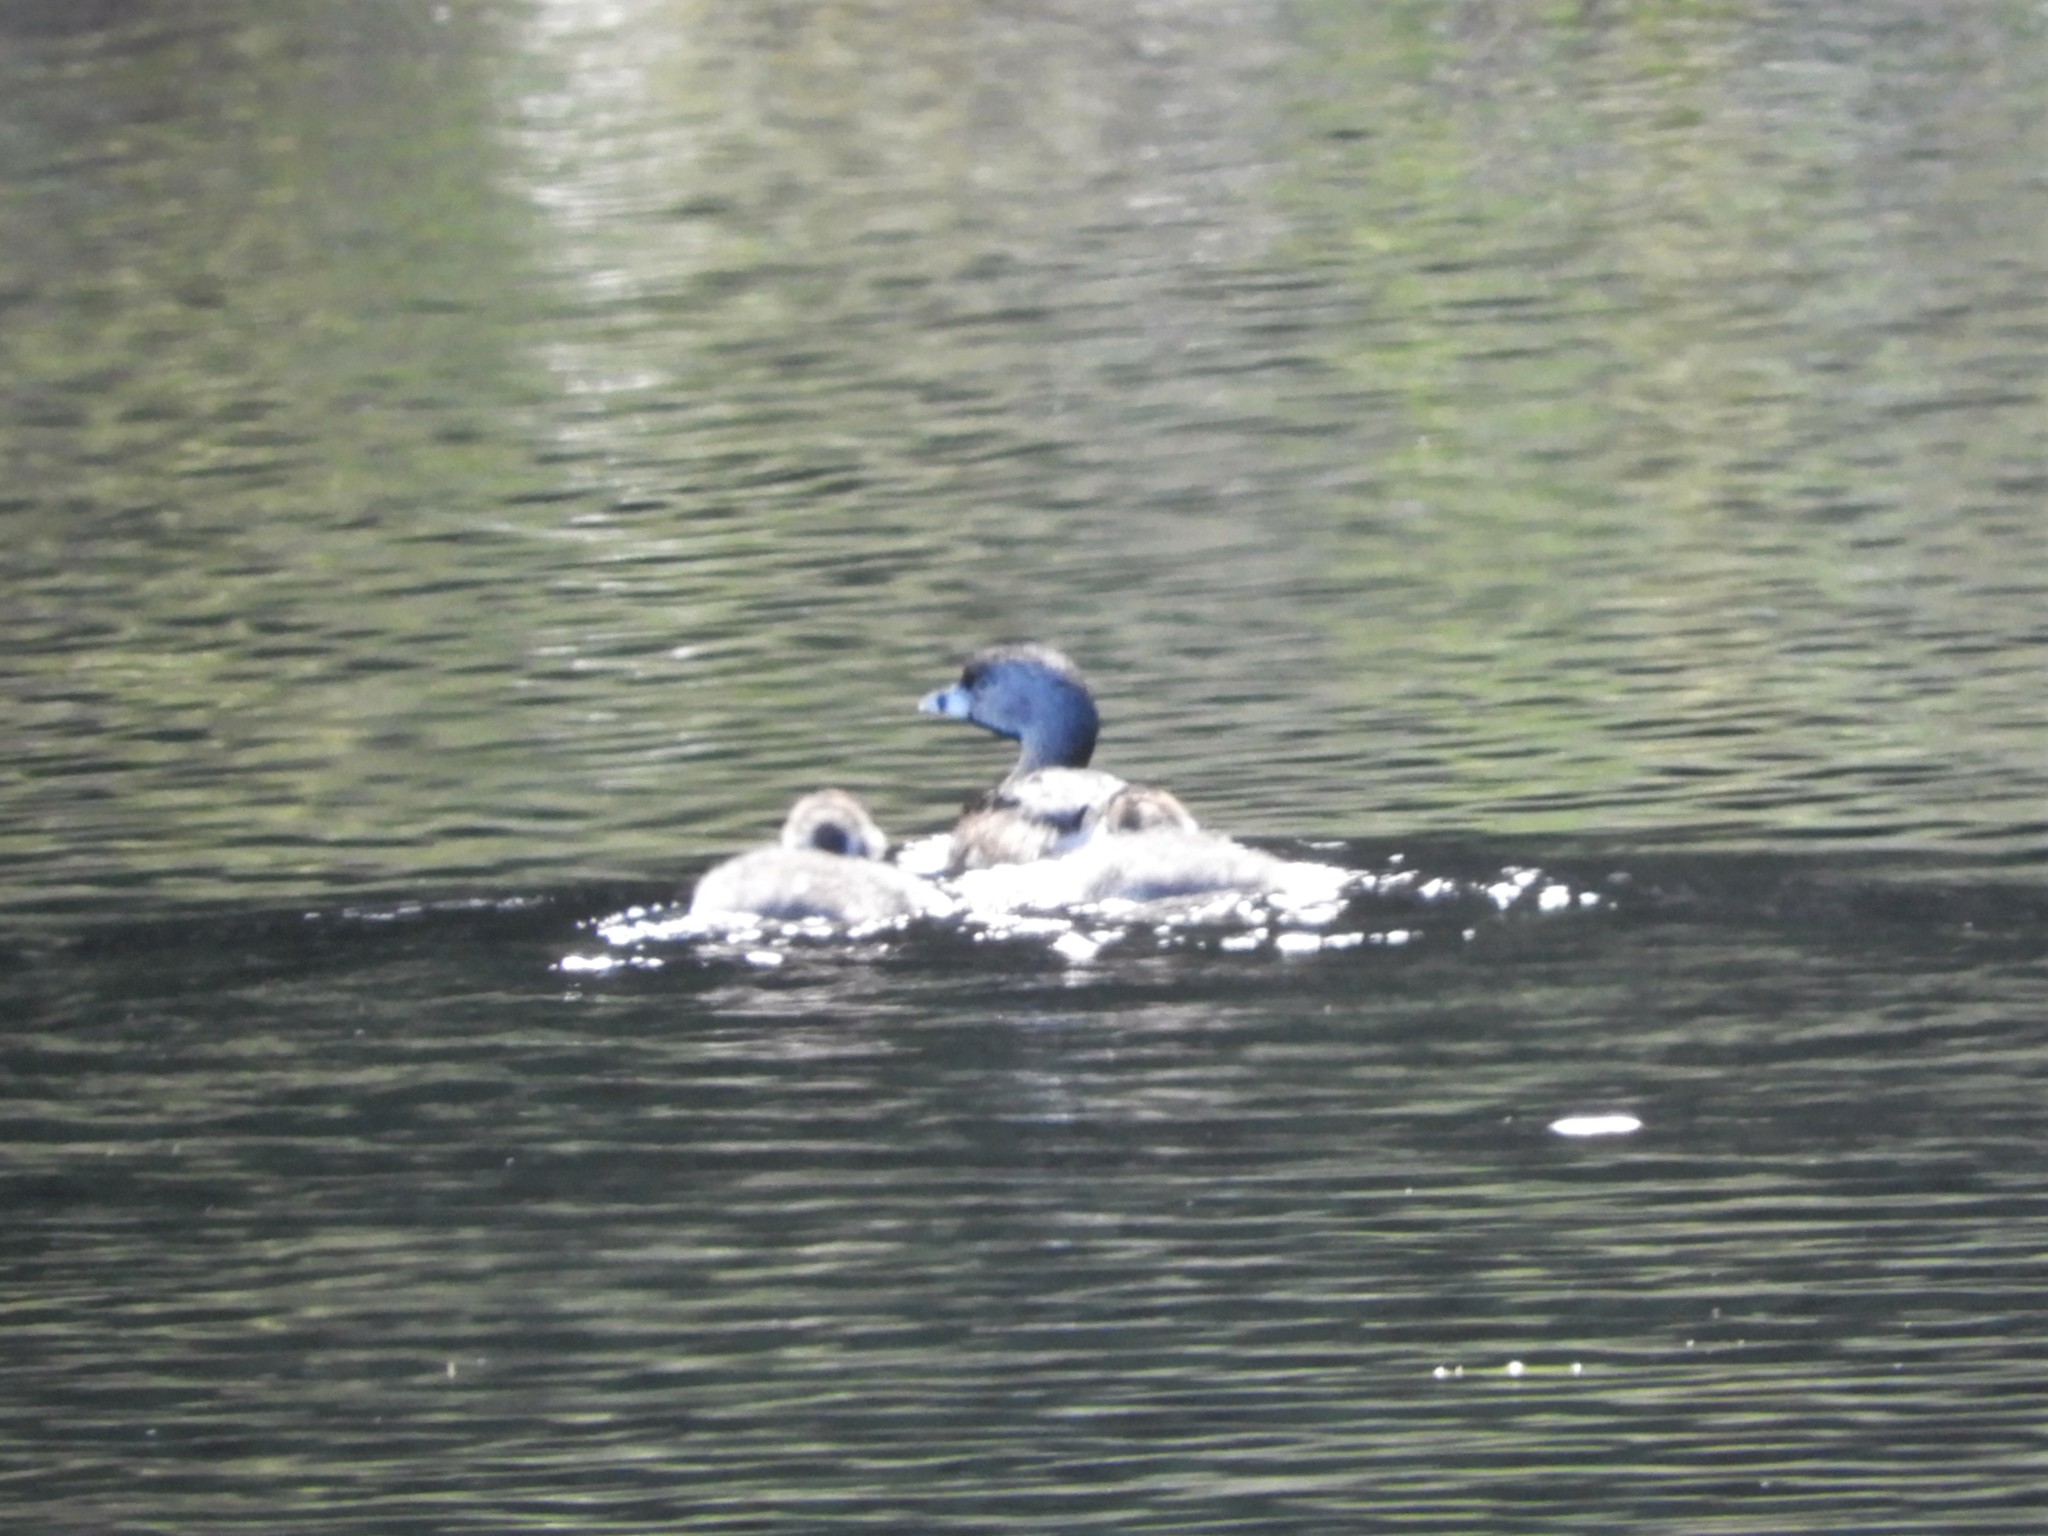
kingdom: Animalia
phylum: Chordata
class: Aves
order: Podicipediformes
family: Podicipedidae
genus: Podilymbus
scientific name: Podilymbus podiceps
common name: Pied-billed grebe
